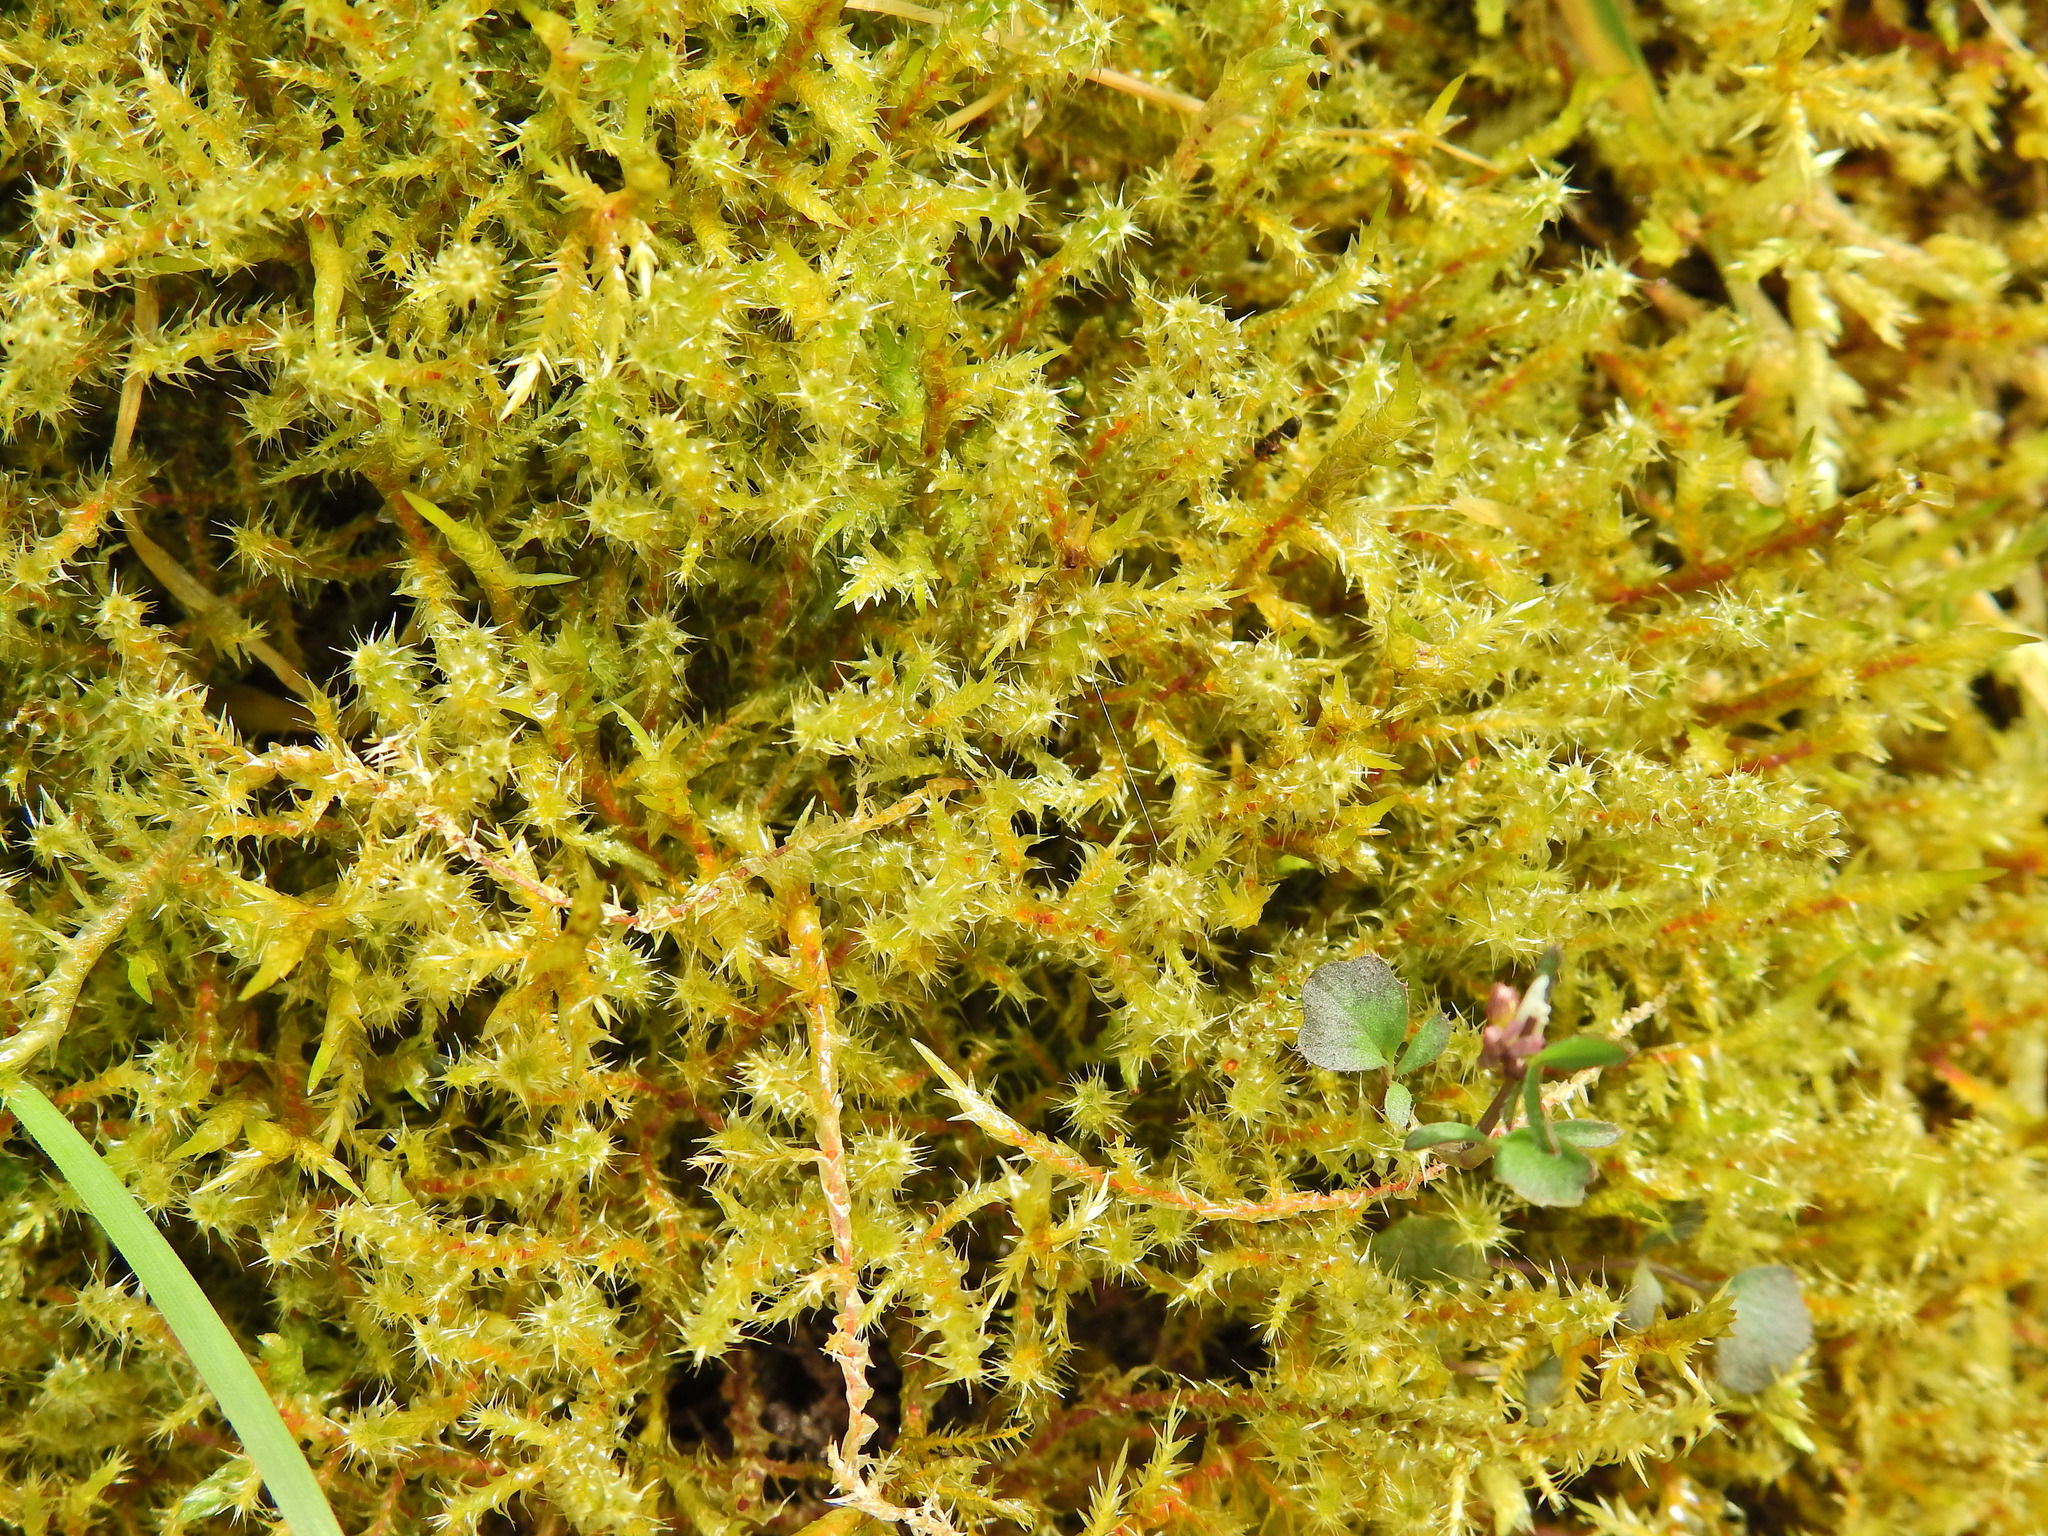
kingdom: Plantae
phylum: Bryophyta
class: Bryopsida
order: Hypnales
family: Hylocomiaceae
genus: Rhytidiadelphus
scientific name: Rhytidiadelphus squarrosus
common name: Springy turf-moss
